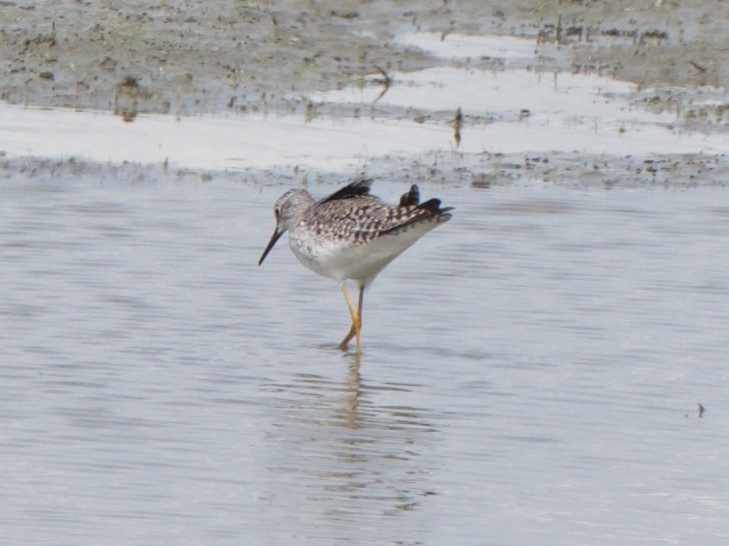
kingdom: Animalia
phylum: Chordata
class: Aves
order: Charadriiformes
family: Scolopacidae
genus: Tringa
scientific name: Tringa melanoleuca
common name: Greater yellowlegs
